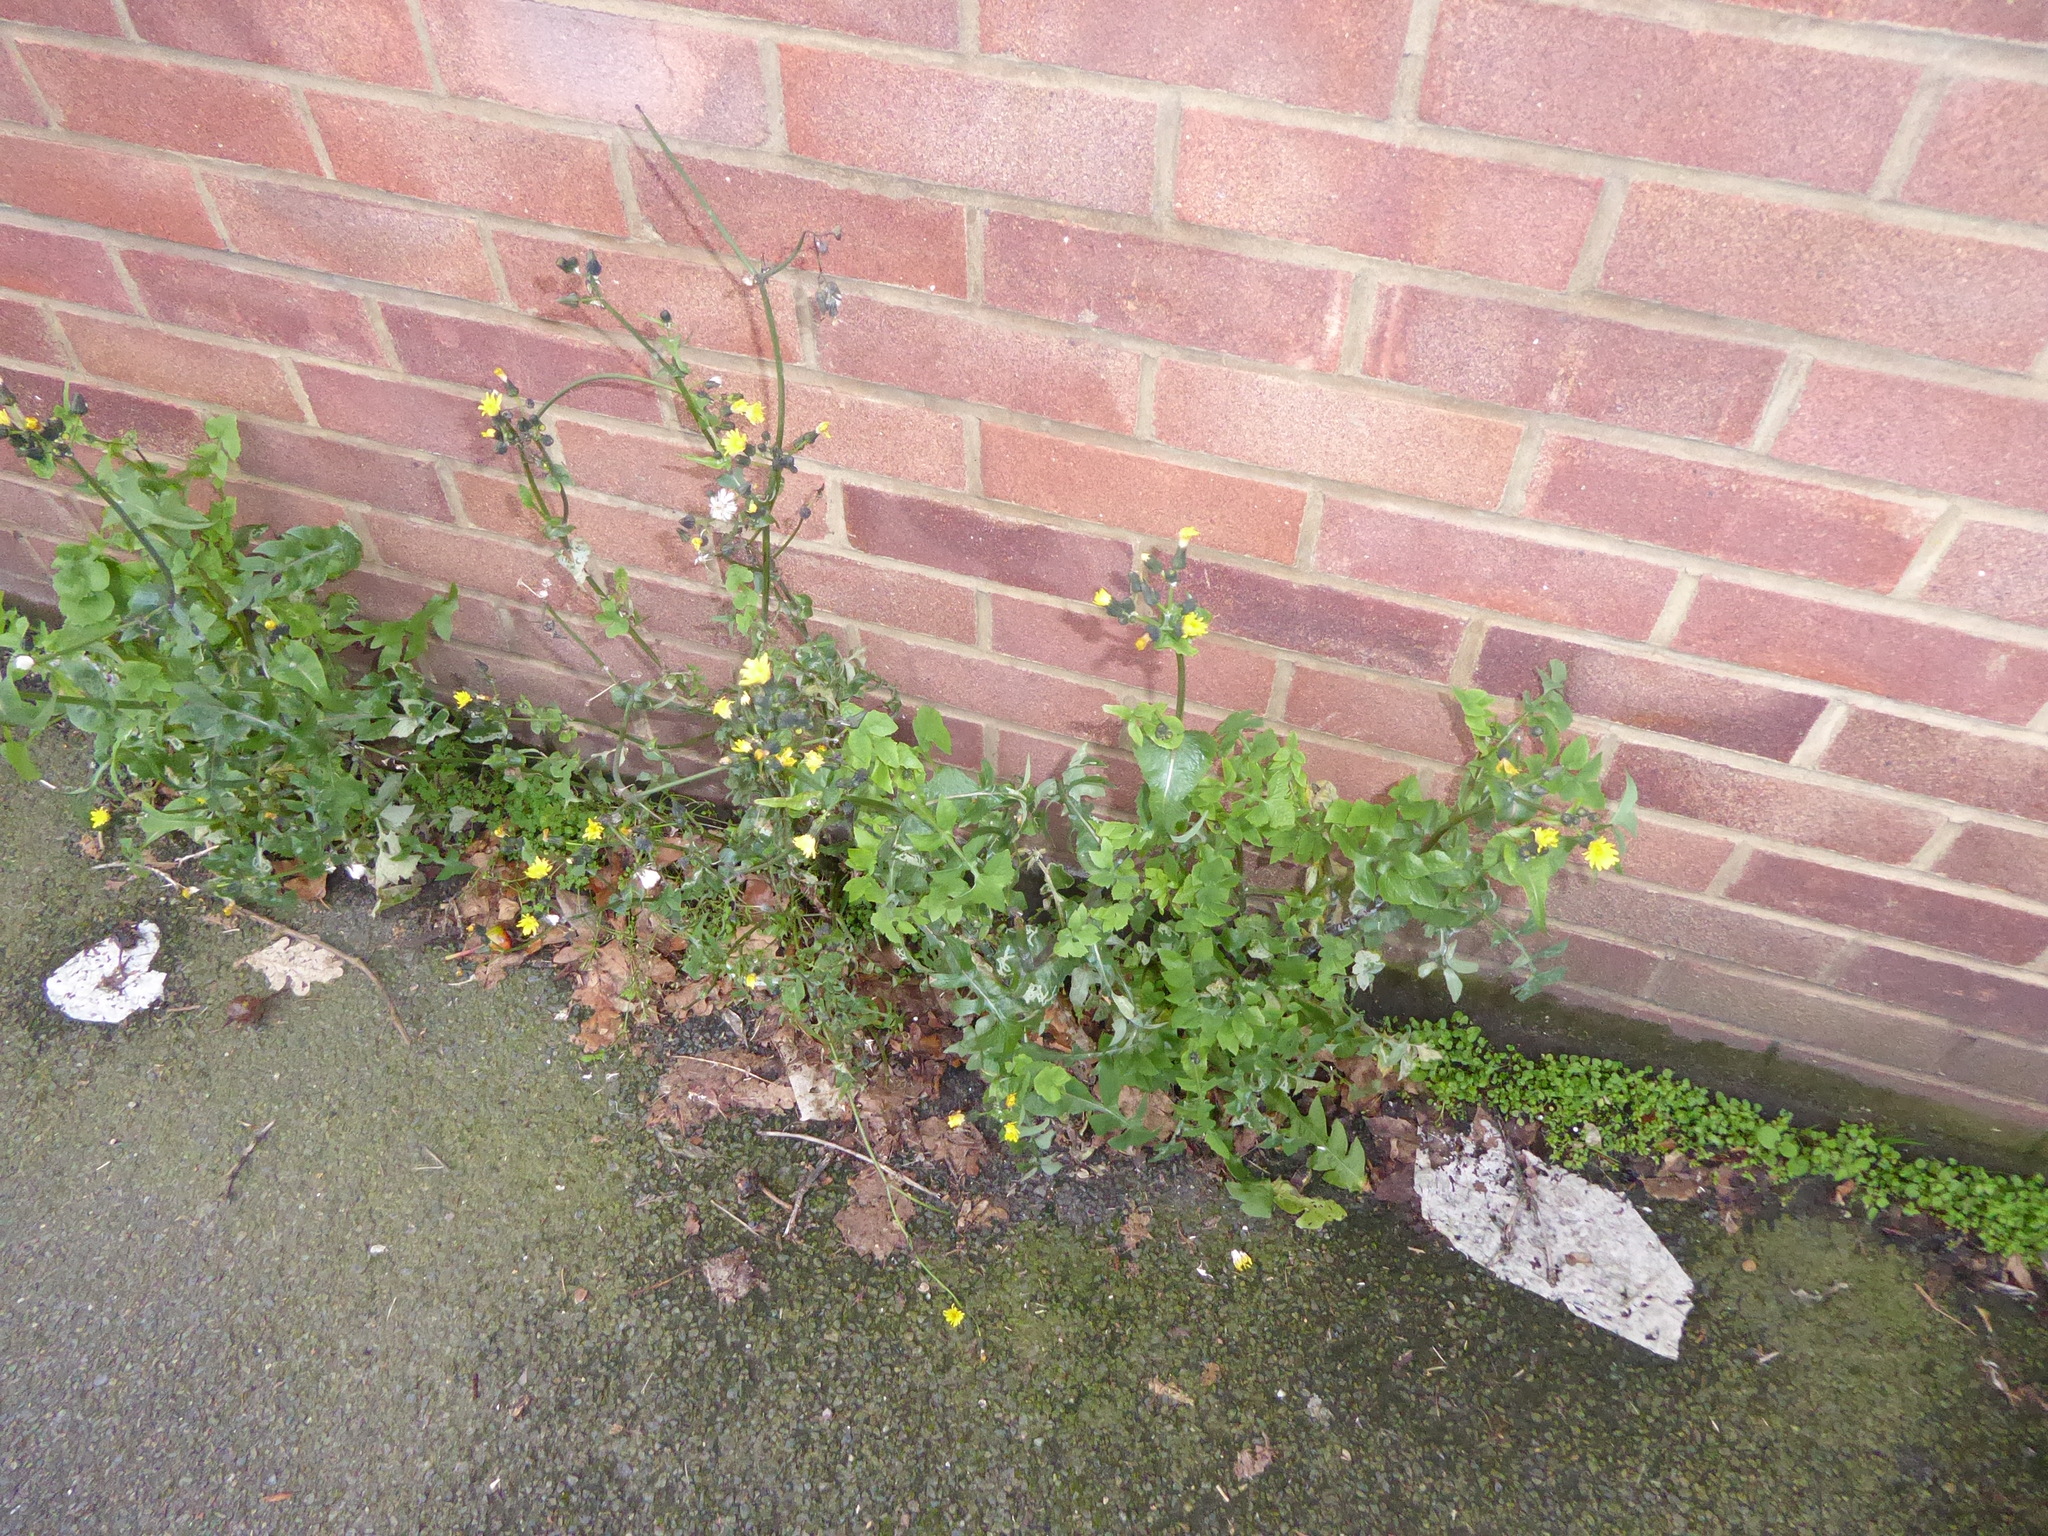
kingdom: Plantae
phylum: Tracheophyta
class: Magnoliopsida
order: Asterales
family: Asteraceae
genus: Sonchus
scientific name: Sonchus oleraceus
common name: Common sowthistle
